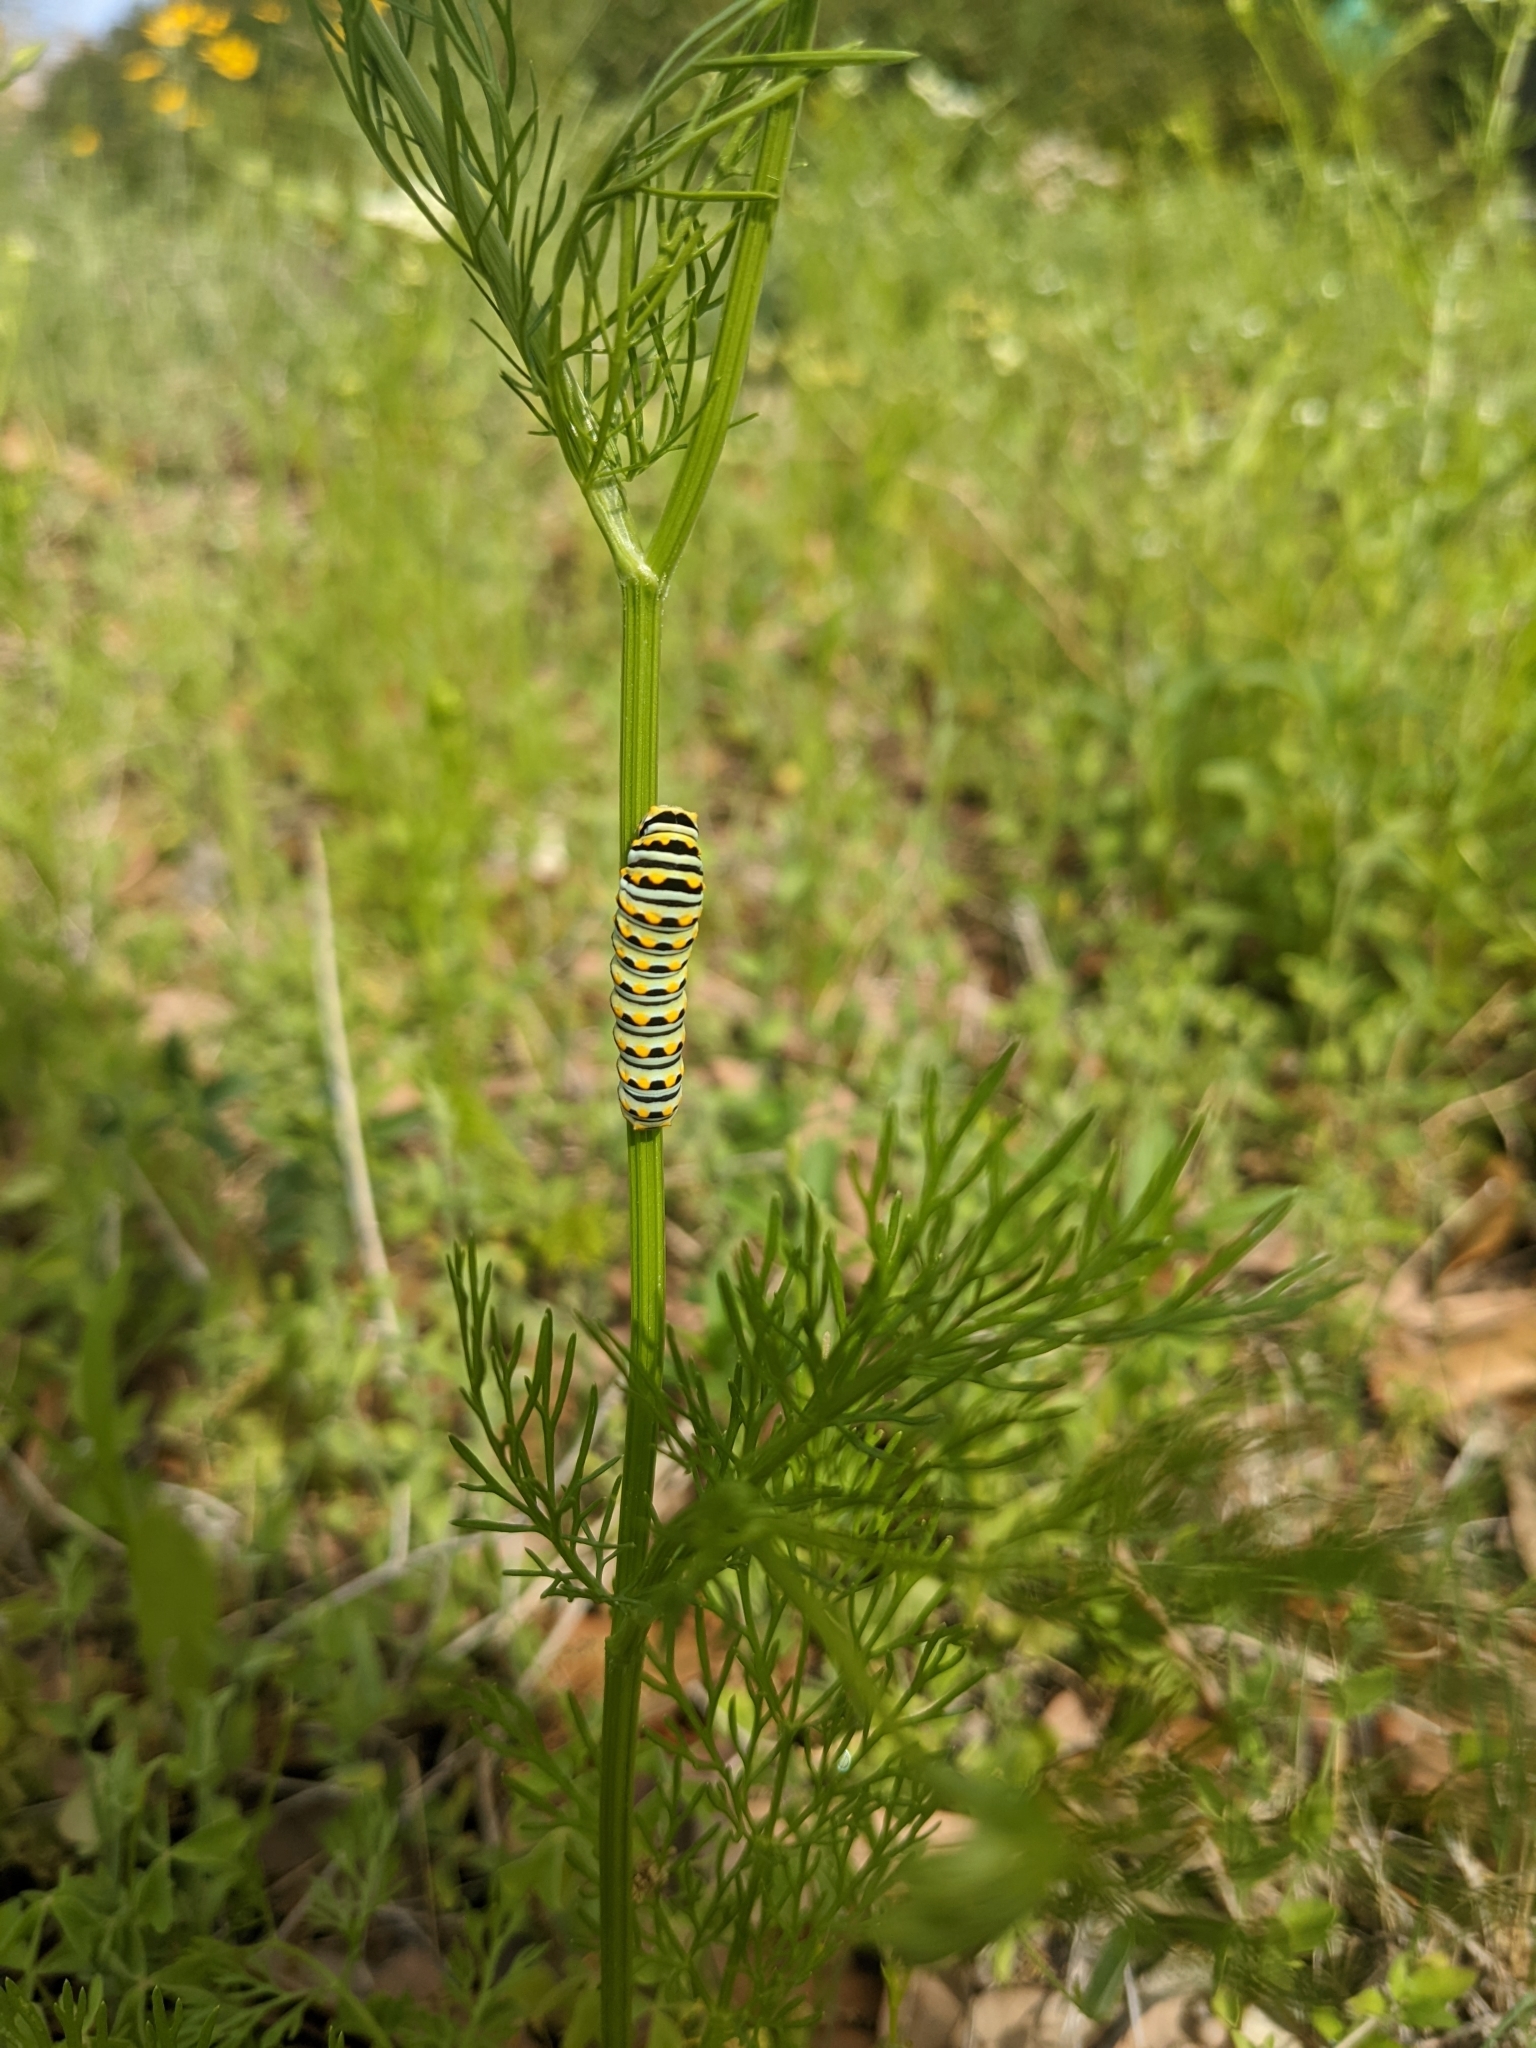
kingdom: Animalia
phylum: Arthropoda
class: Insecta
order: Lepidoptera
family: Papilionidae
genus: Papilio
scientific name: Papilio polyxenes
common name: Black swallowtail
